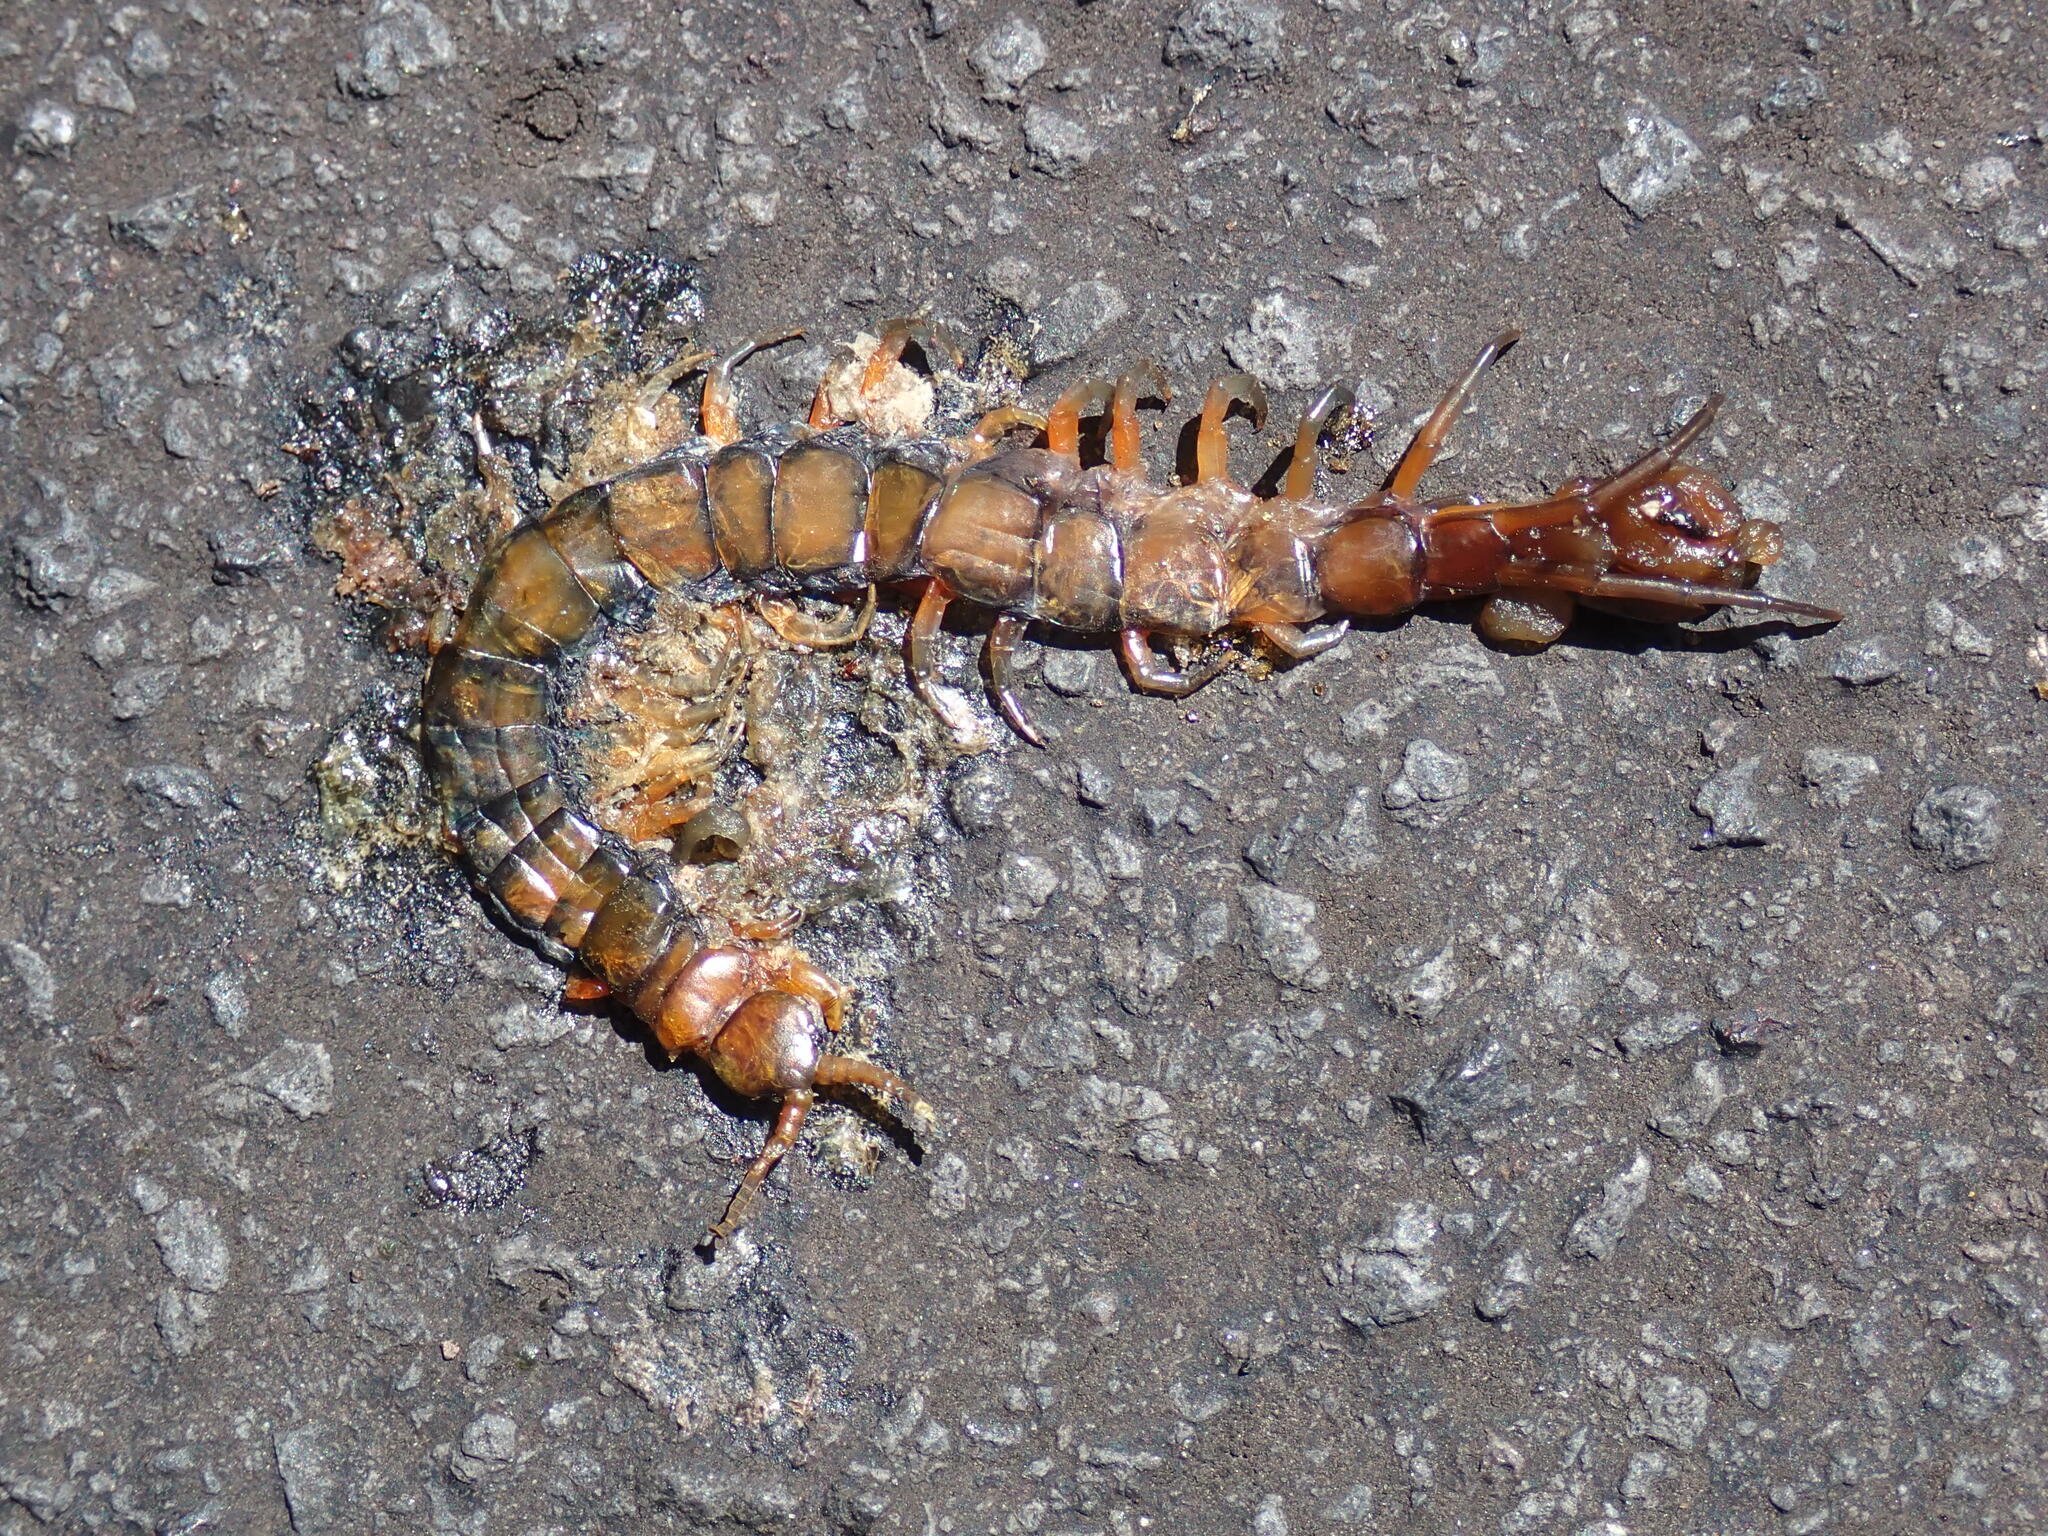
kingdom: Animalia
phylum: Arthropoda
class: Chilopoda
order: Scolopendromorpha
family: Scolopendridae
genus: Scolopendra
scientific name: Scolopendra subspinipes
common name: Centipede
